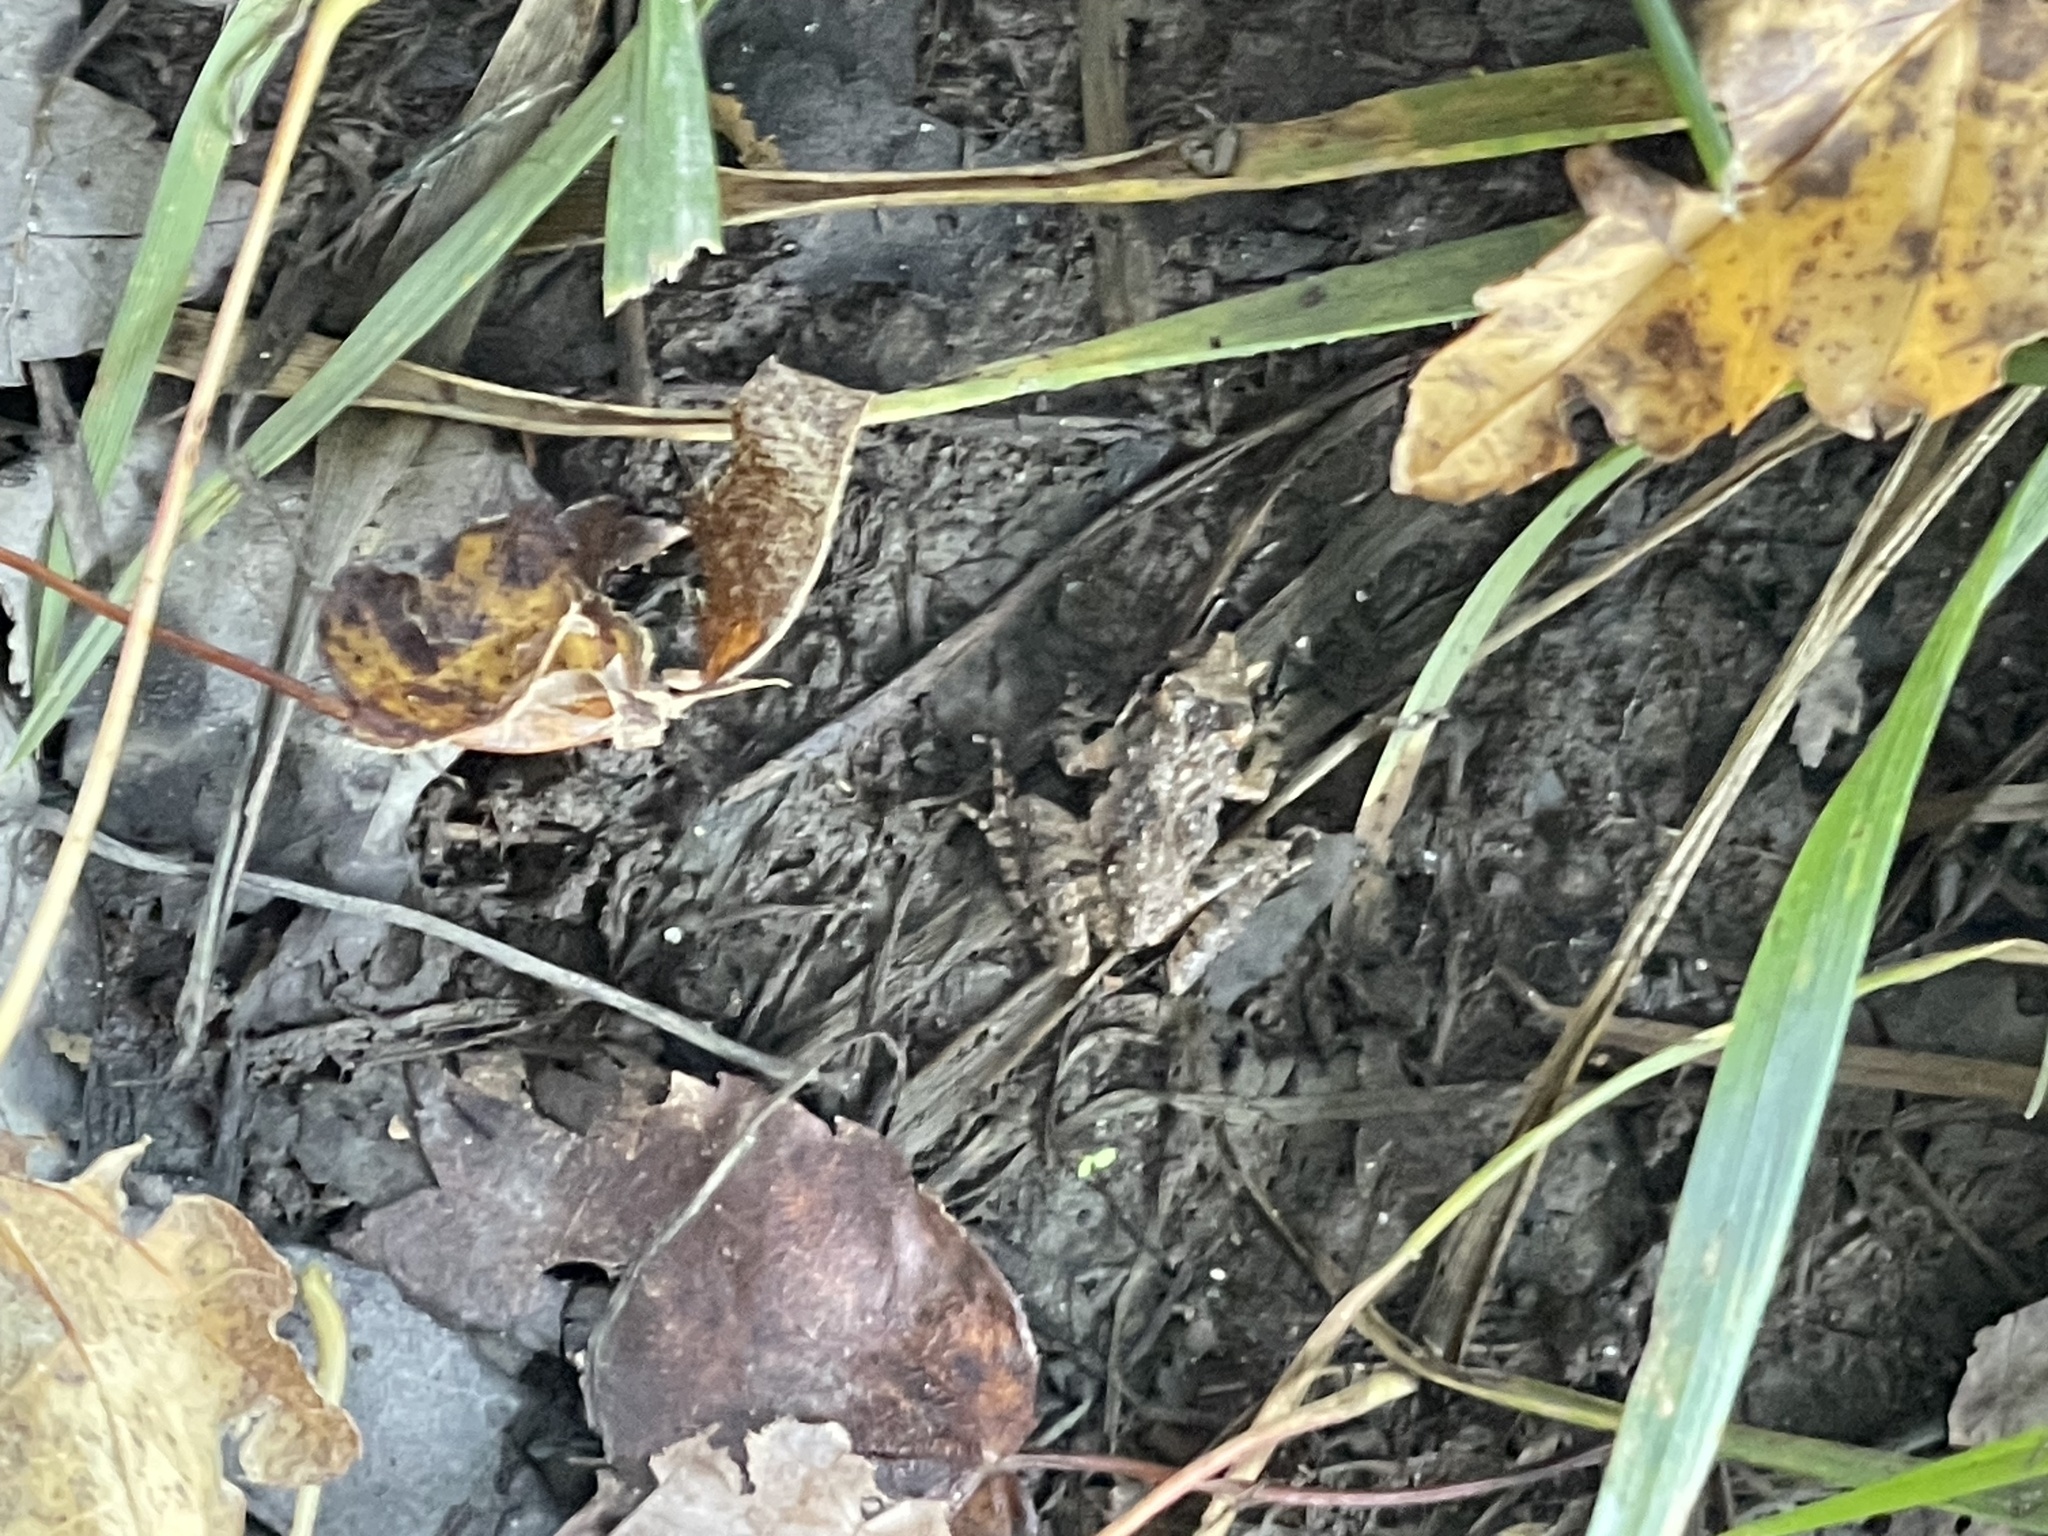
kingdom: Animalia
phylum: Chordata
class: Amphibia
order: Anura
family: Hylidae
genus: Acris
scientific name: Acris crepitans
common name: Northern cricket frog
